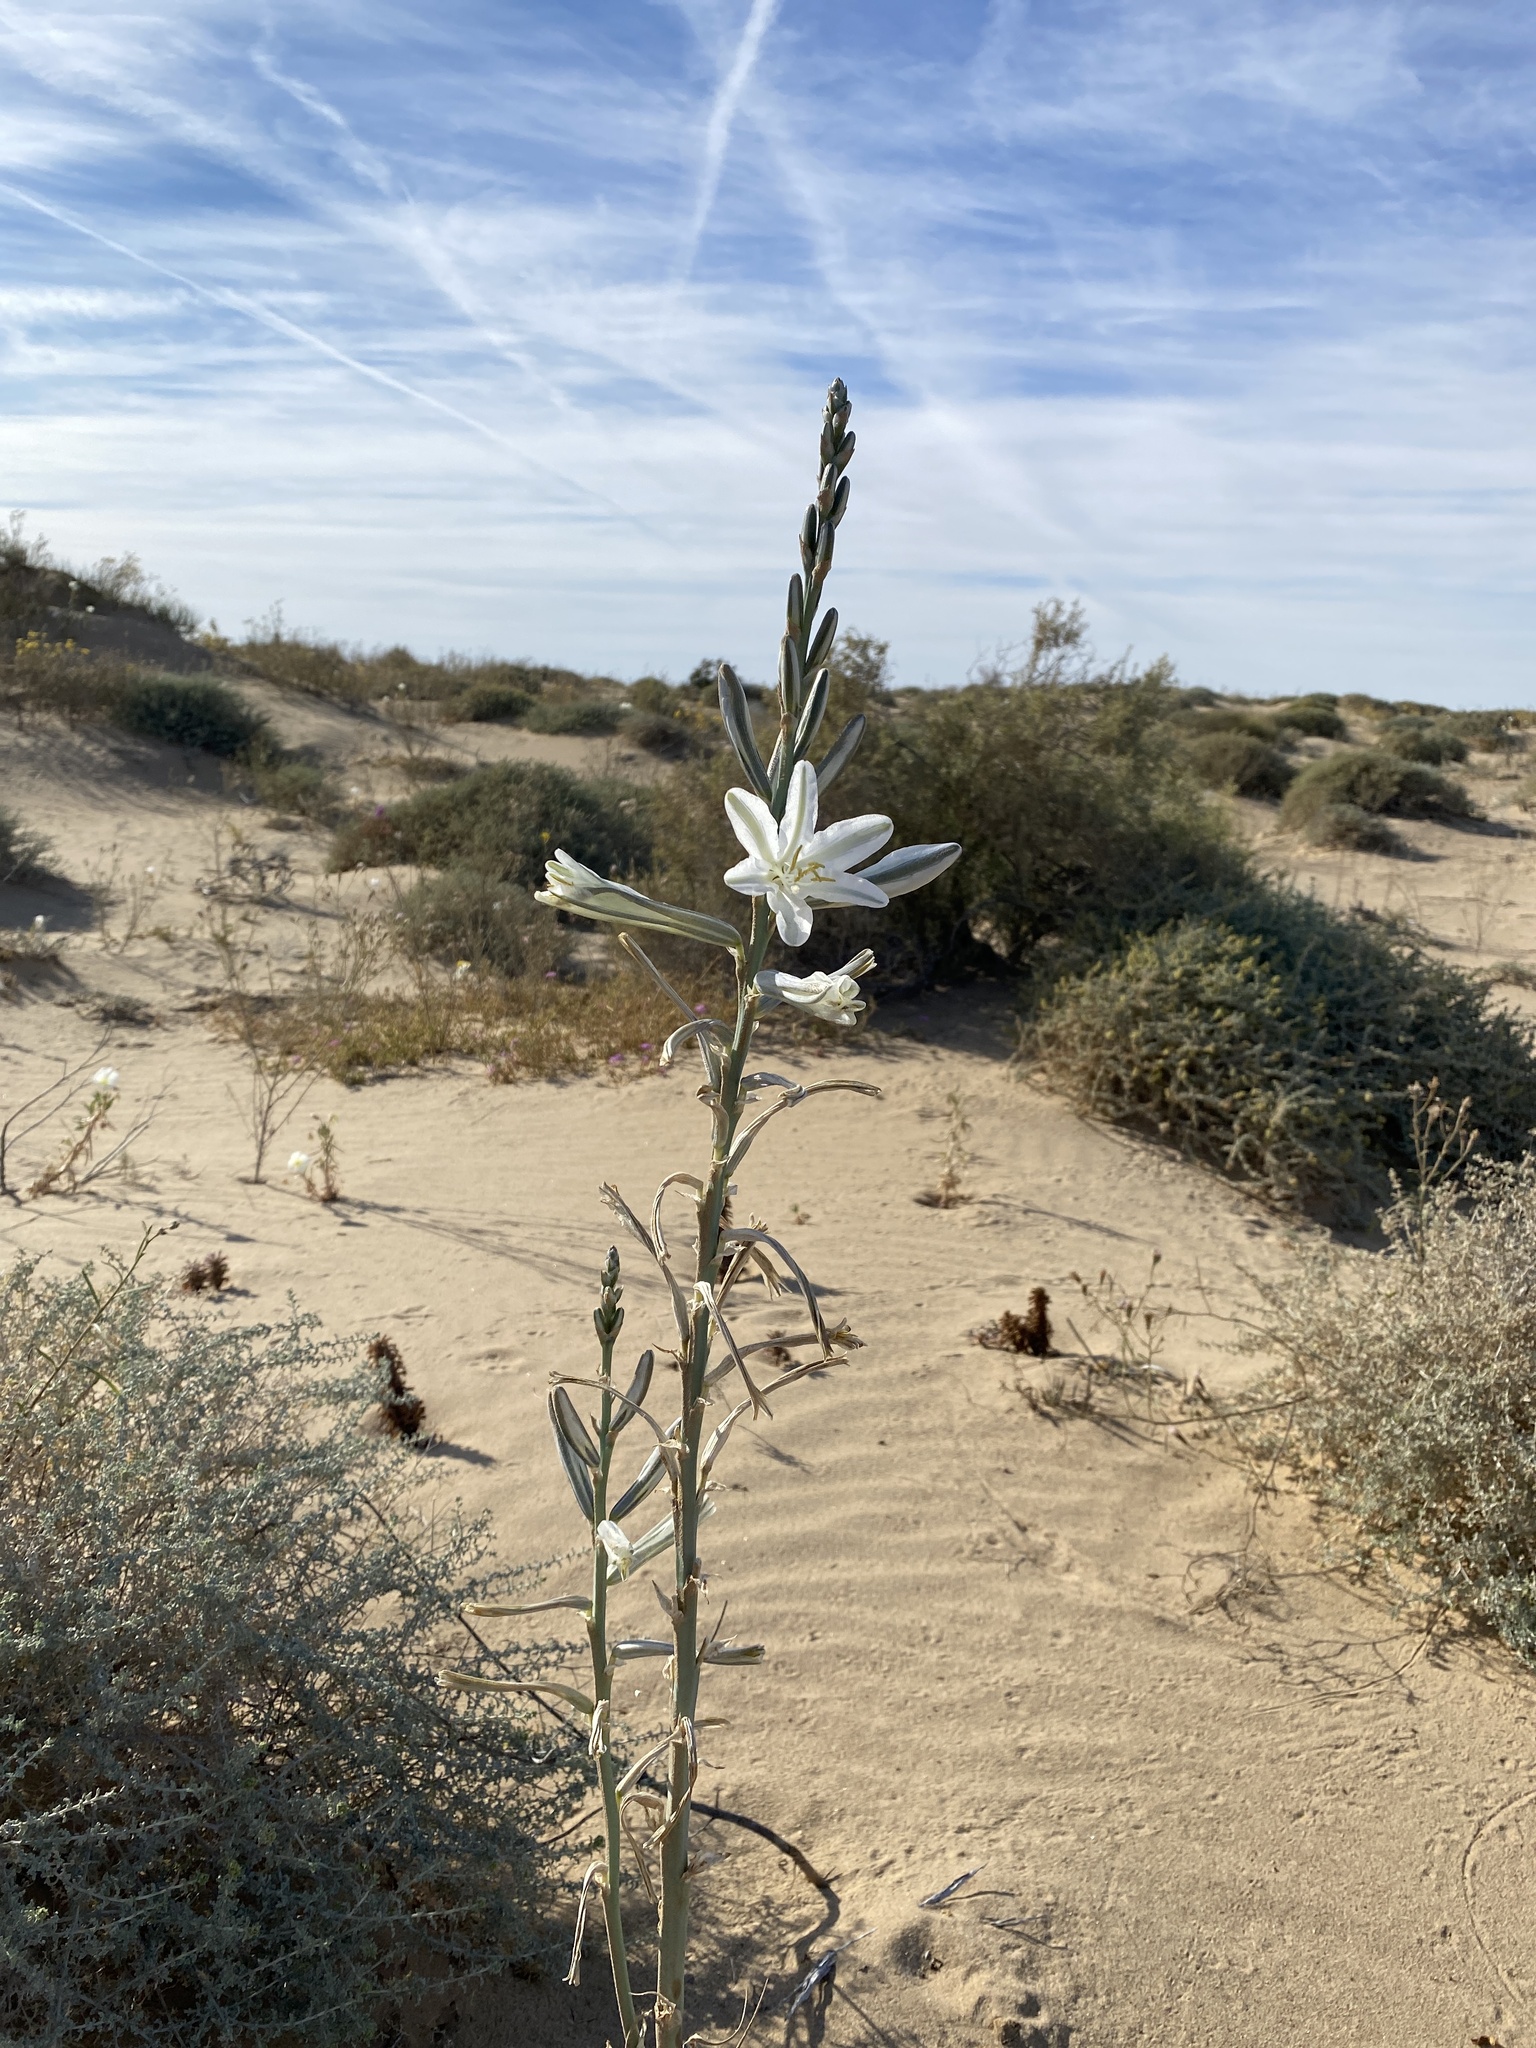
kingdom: Plantae
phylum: Tracheophyta
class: Liliopsida
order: Asparagales
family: Asparagaceae
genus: Hesperocallis
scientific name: Hesperocallis undulata
